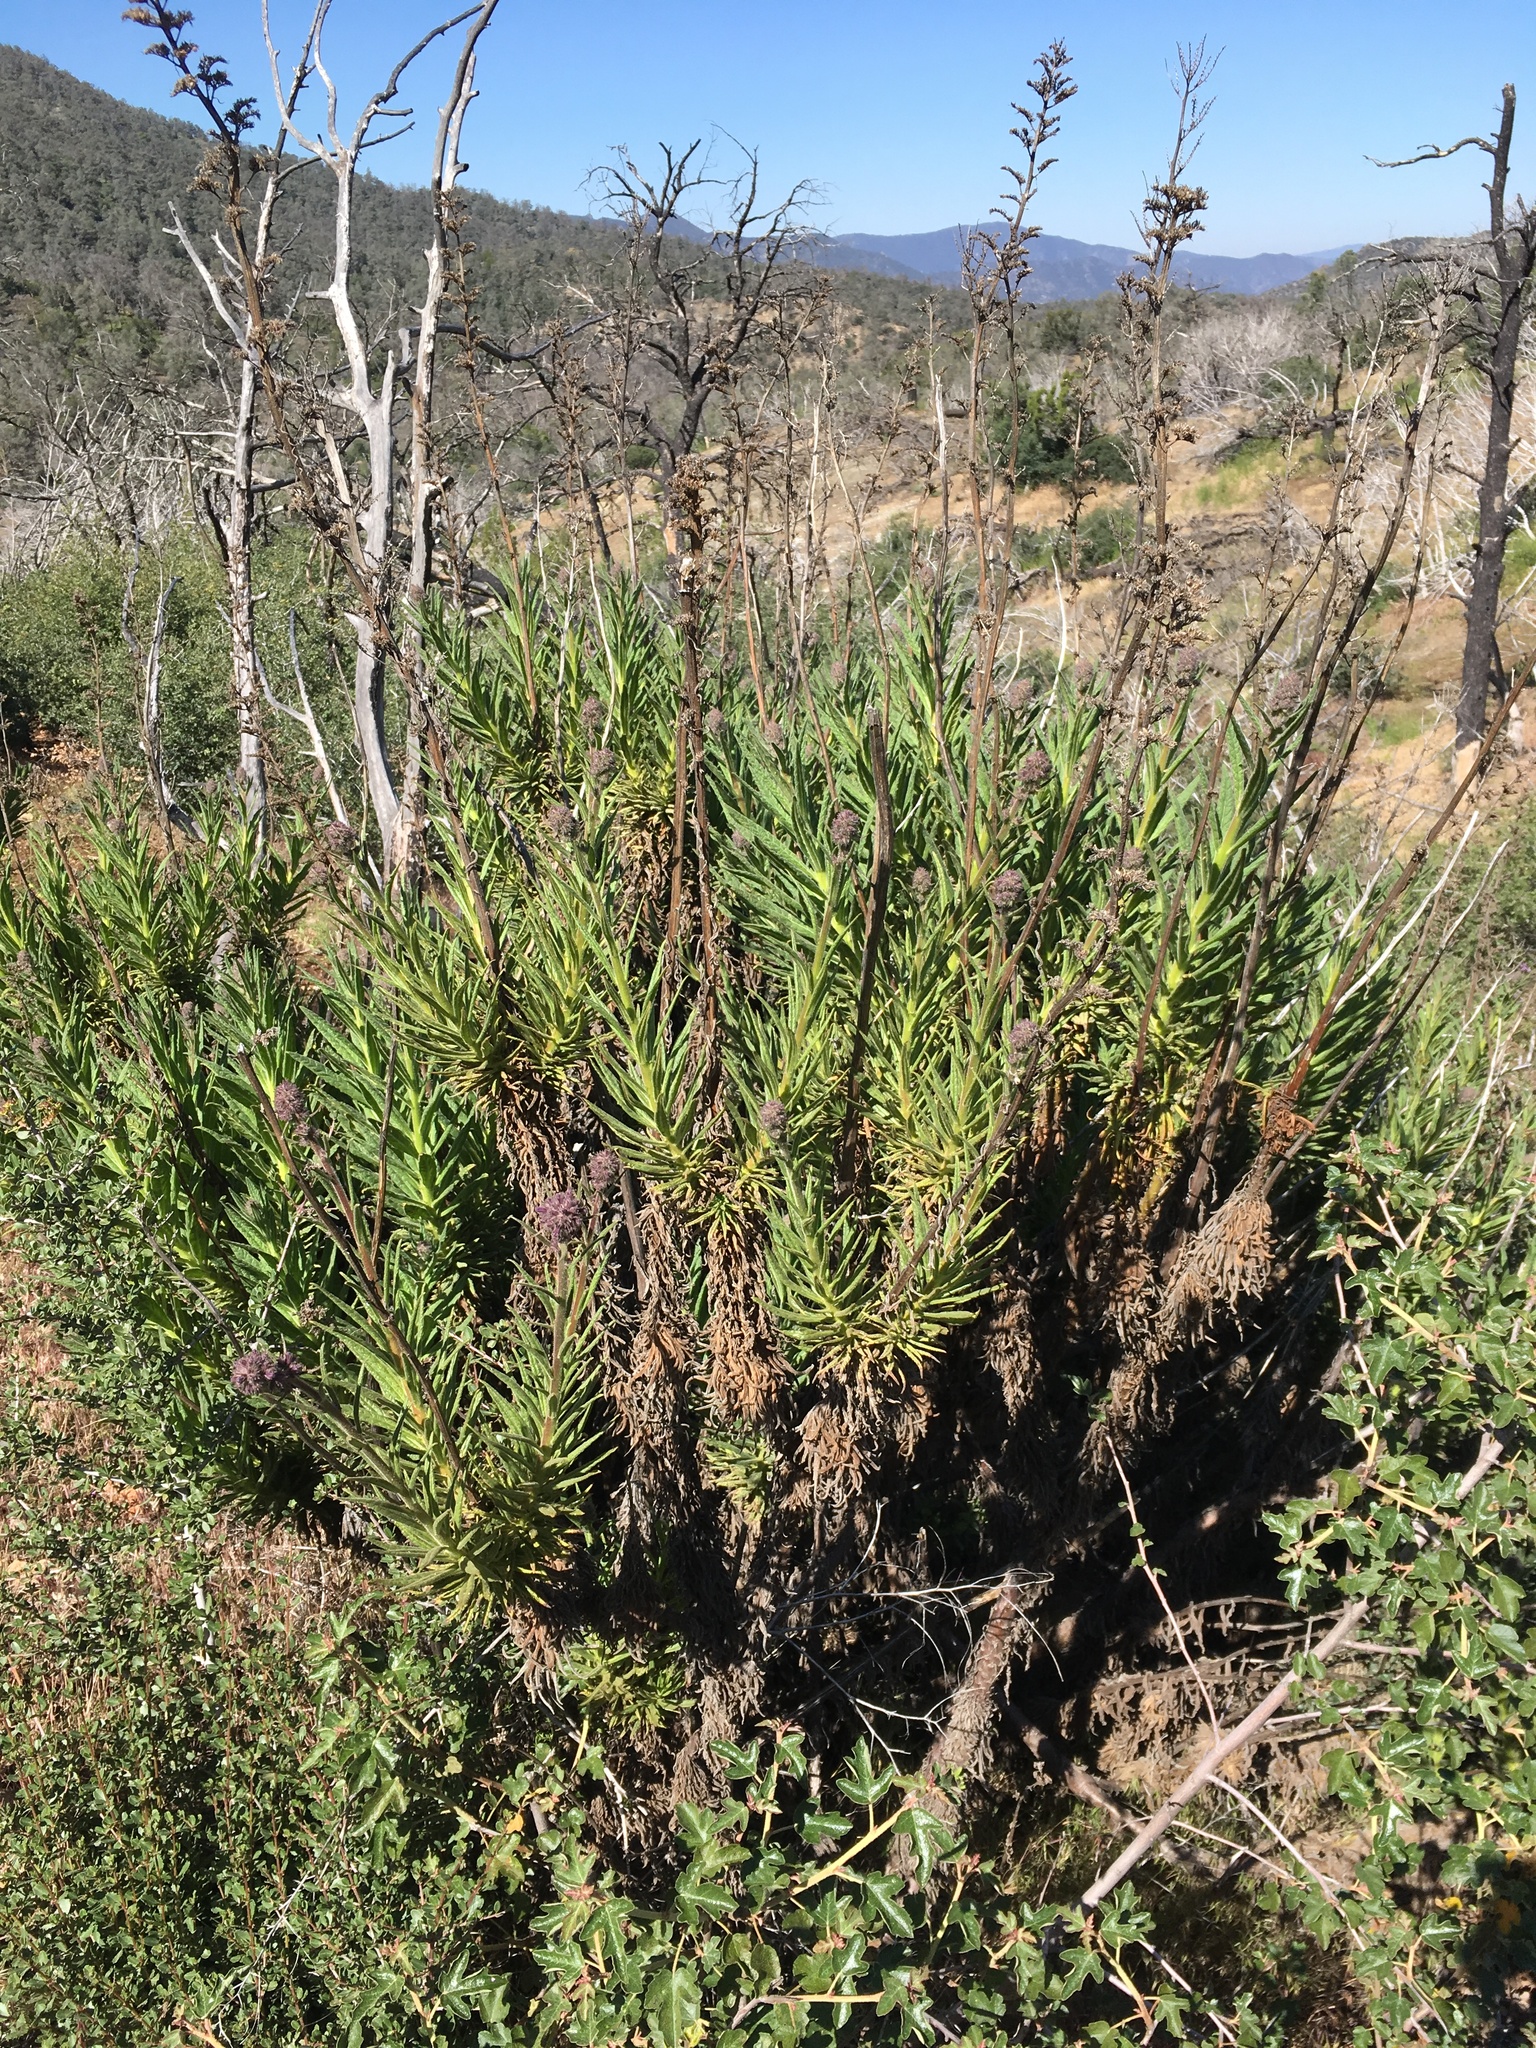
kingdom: Plantae
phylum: Tracheophyta
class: Magnoliopsida
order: Boraginales
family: Namaceae
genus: Turricula
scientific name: Turricula parryi
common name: Poodle-dog-bush
